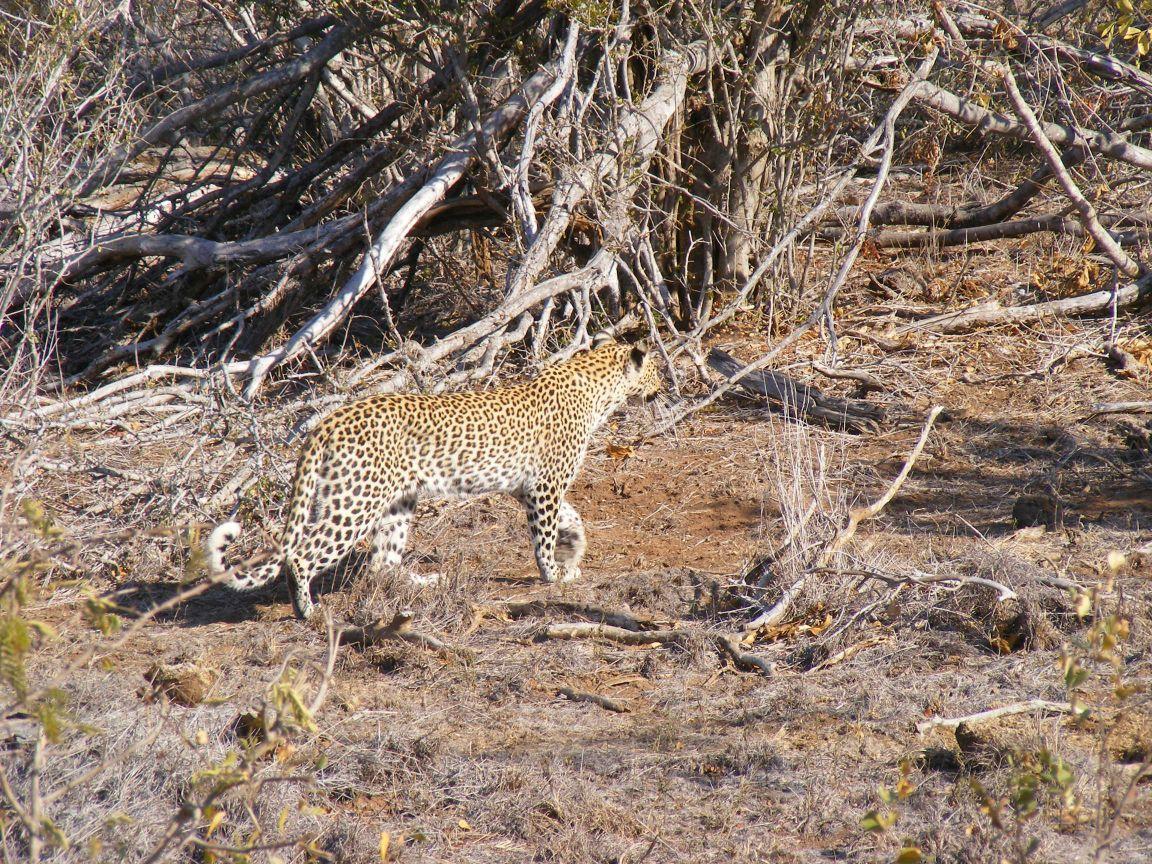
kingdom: Animalia
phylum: Chordata
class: Mammalia
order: Carnivora
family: Felidae
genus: Panthera
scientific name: Panthera pardus
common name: Leopard
